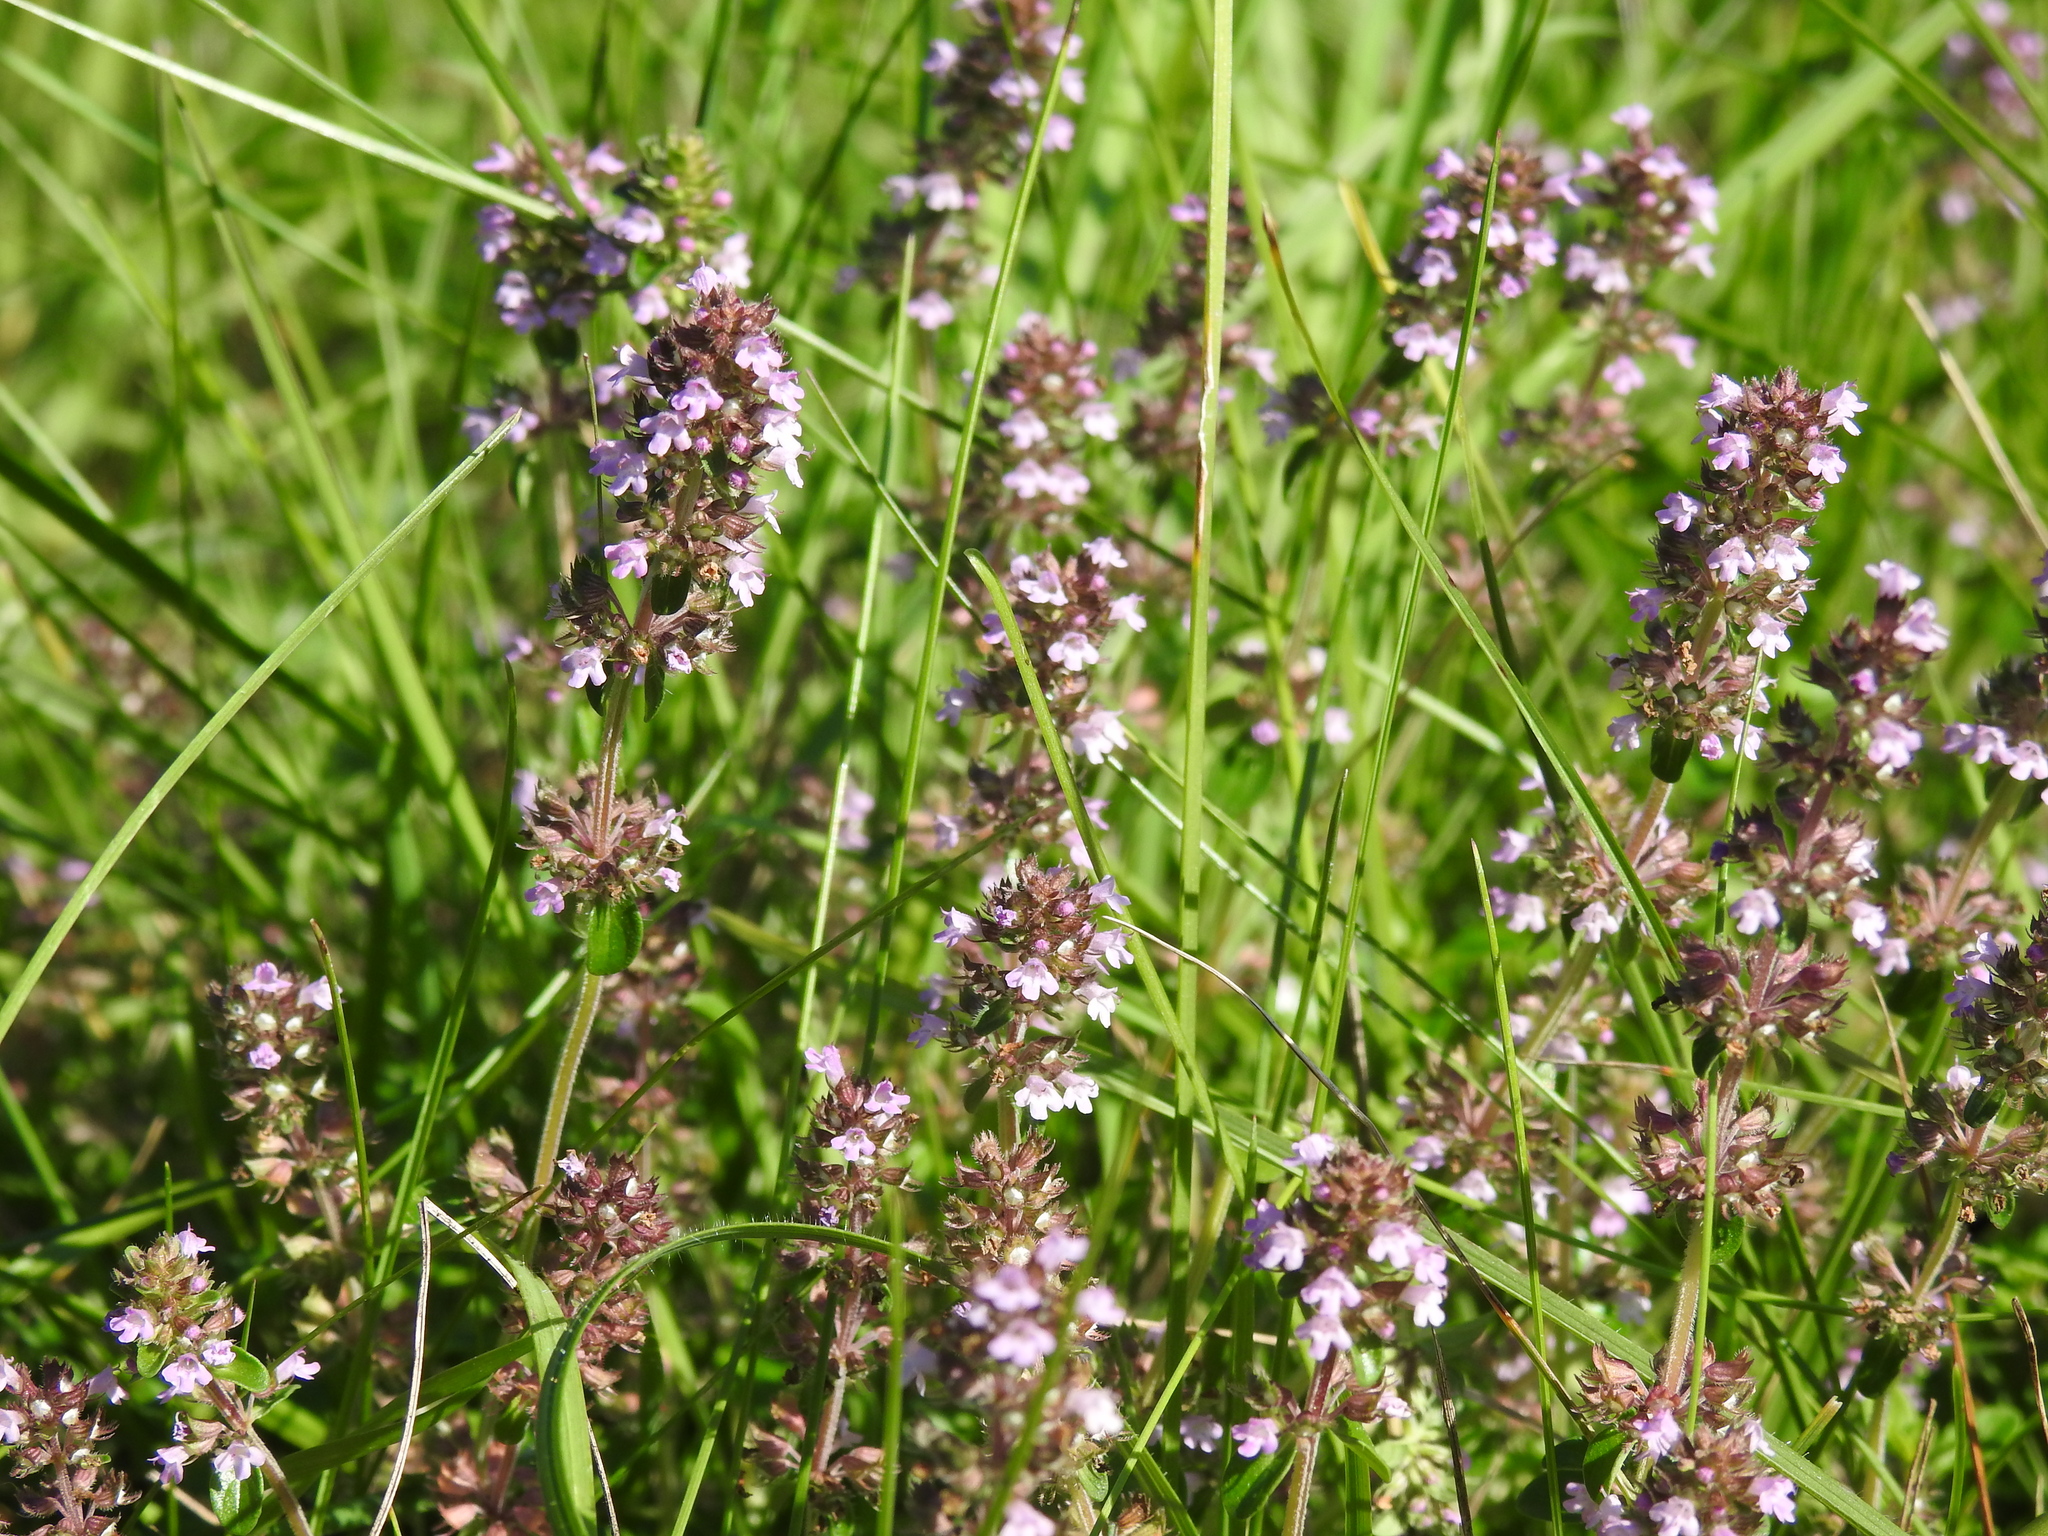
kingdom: Plantae
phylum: Tracheophyta
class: Magnoliopsida
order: Lamiales
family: Lamiaceae
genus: Thymus
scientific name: Thymus pulegioides
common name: Large thyme
